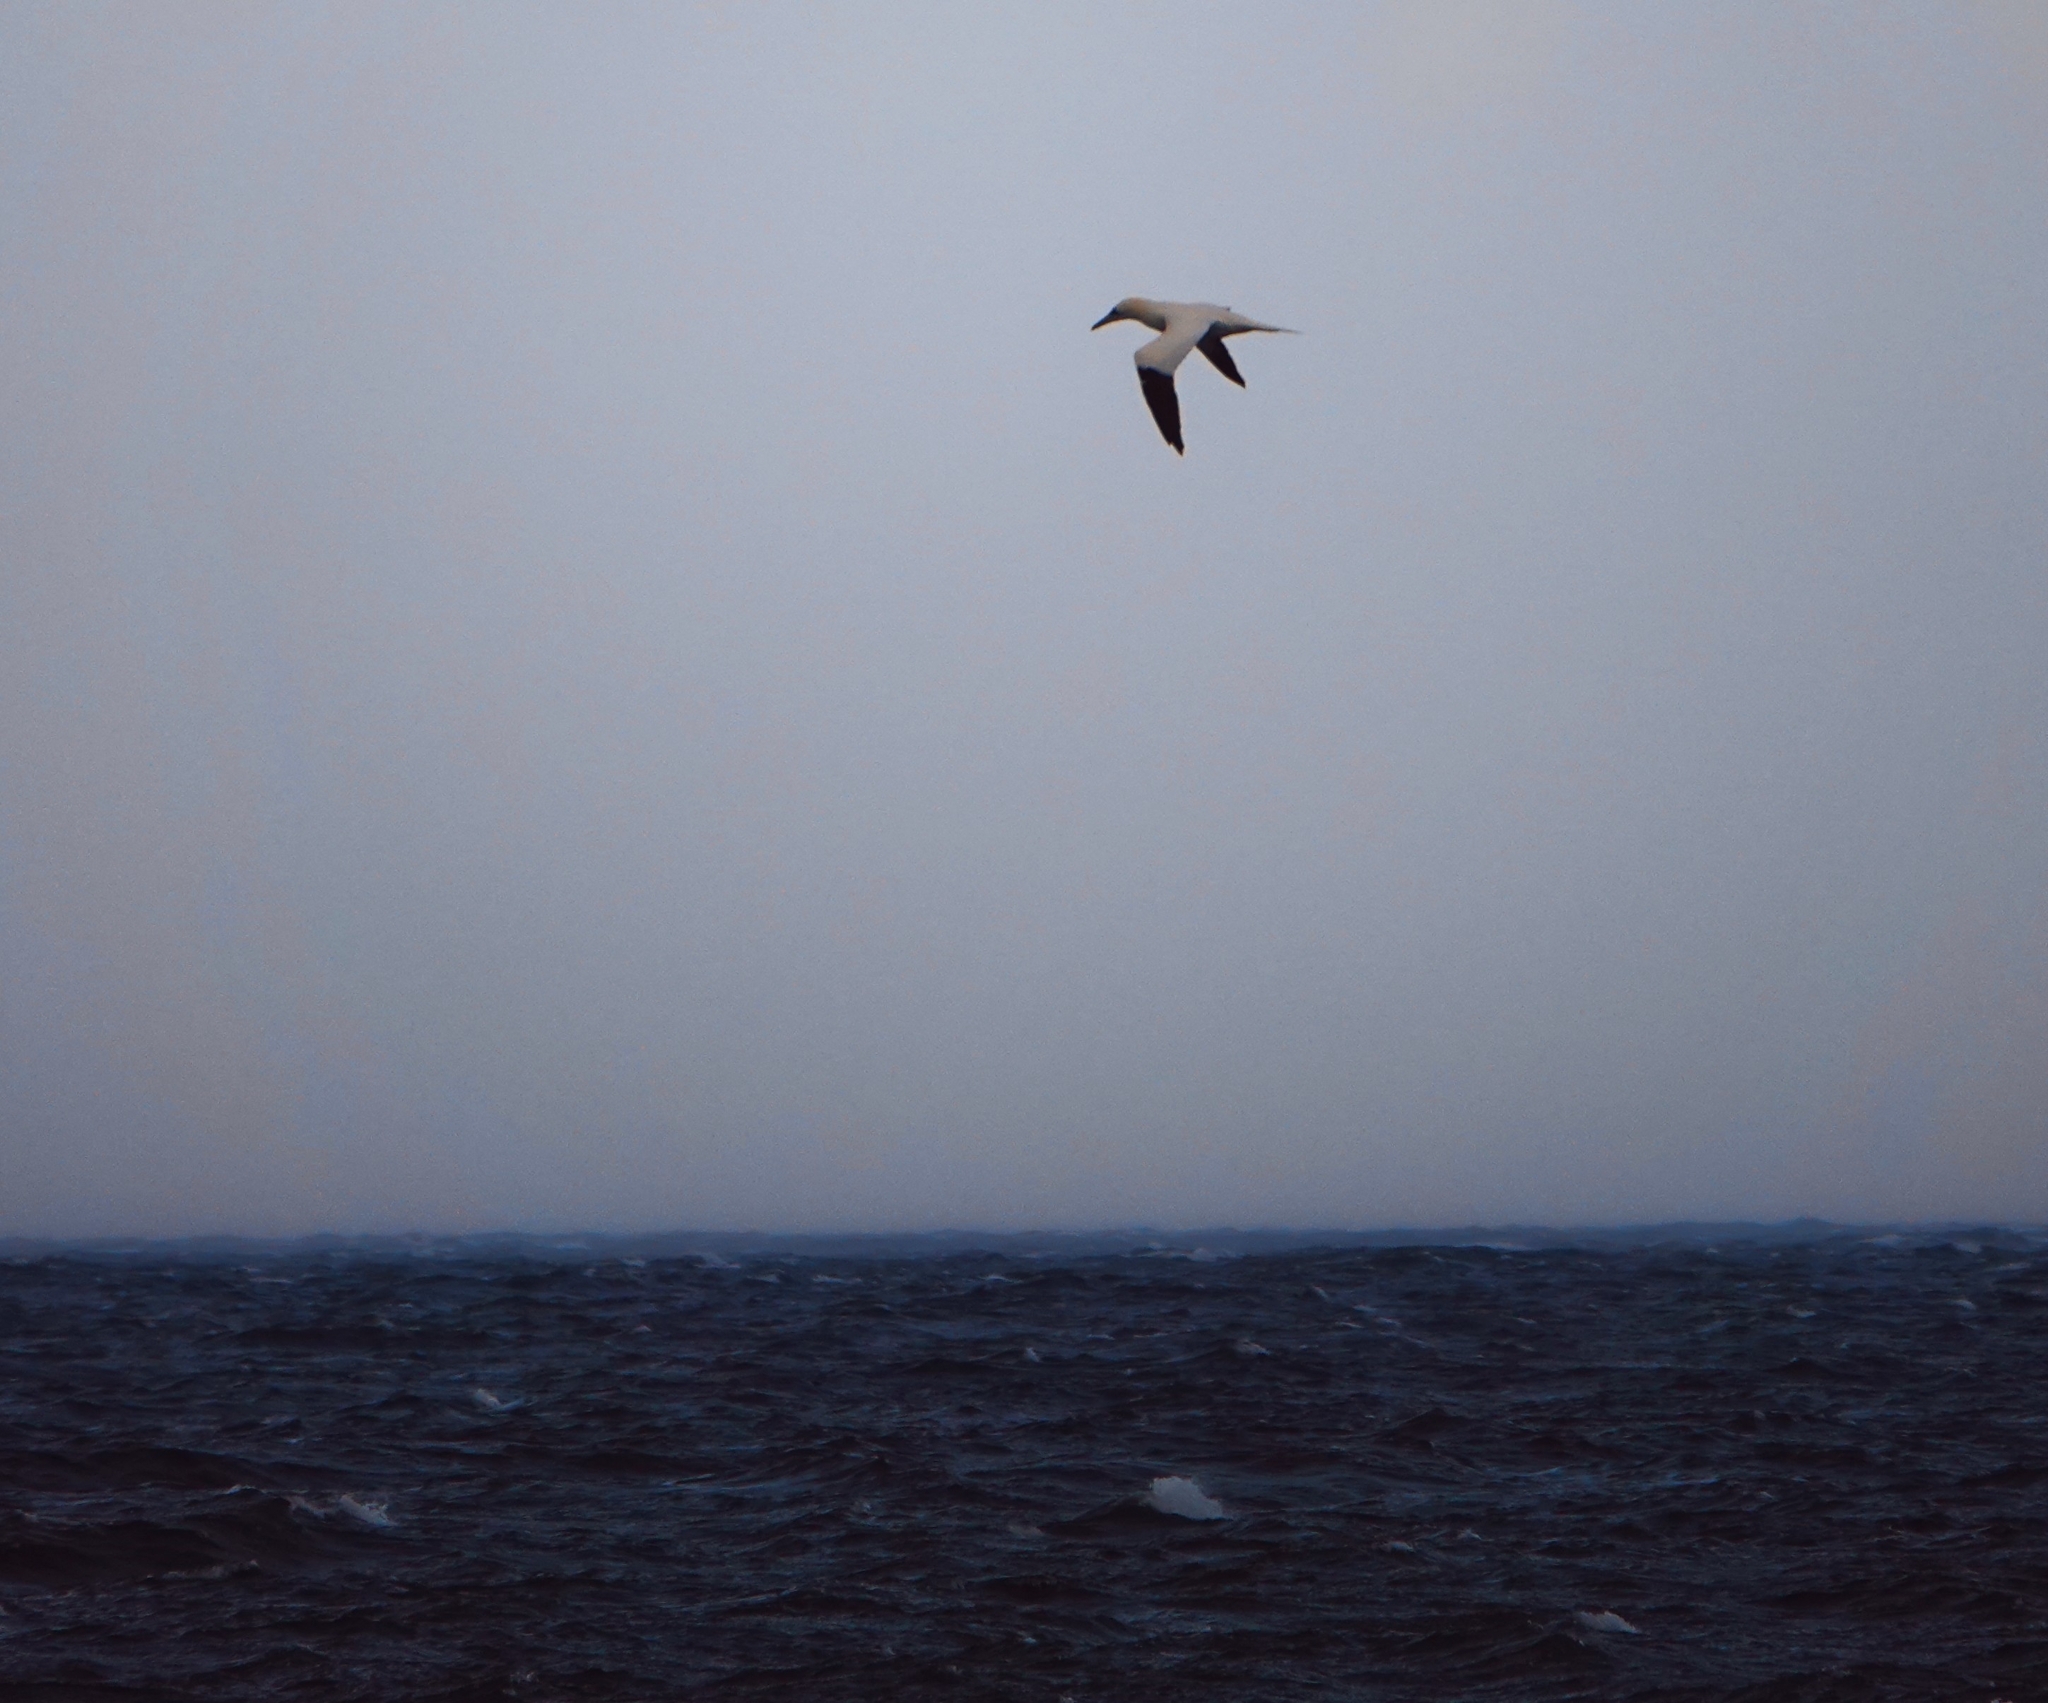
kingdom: Animalia
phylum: Chordata
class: Aves
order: Suliformes
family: Sulidae
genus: Morus
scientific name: Morus bassanus
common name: Northern gannet
